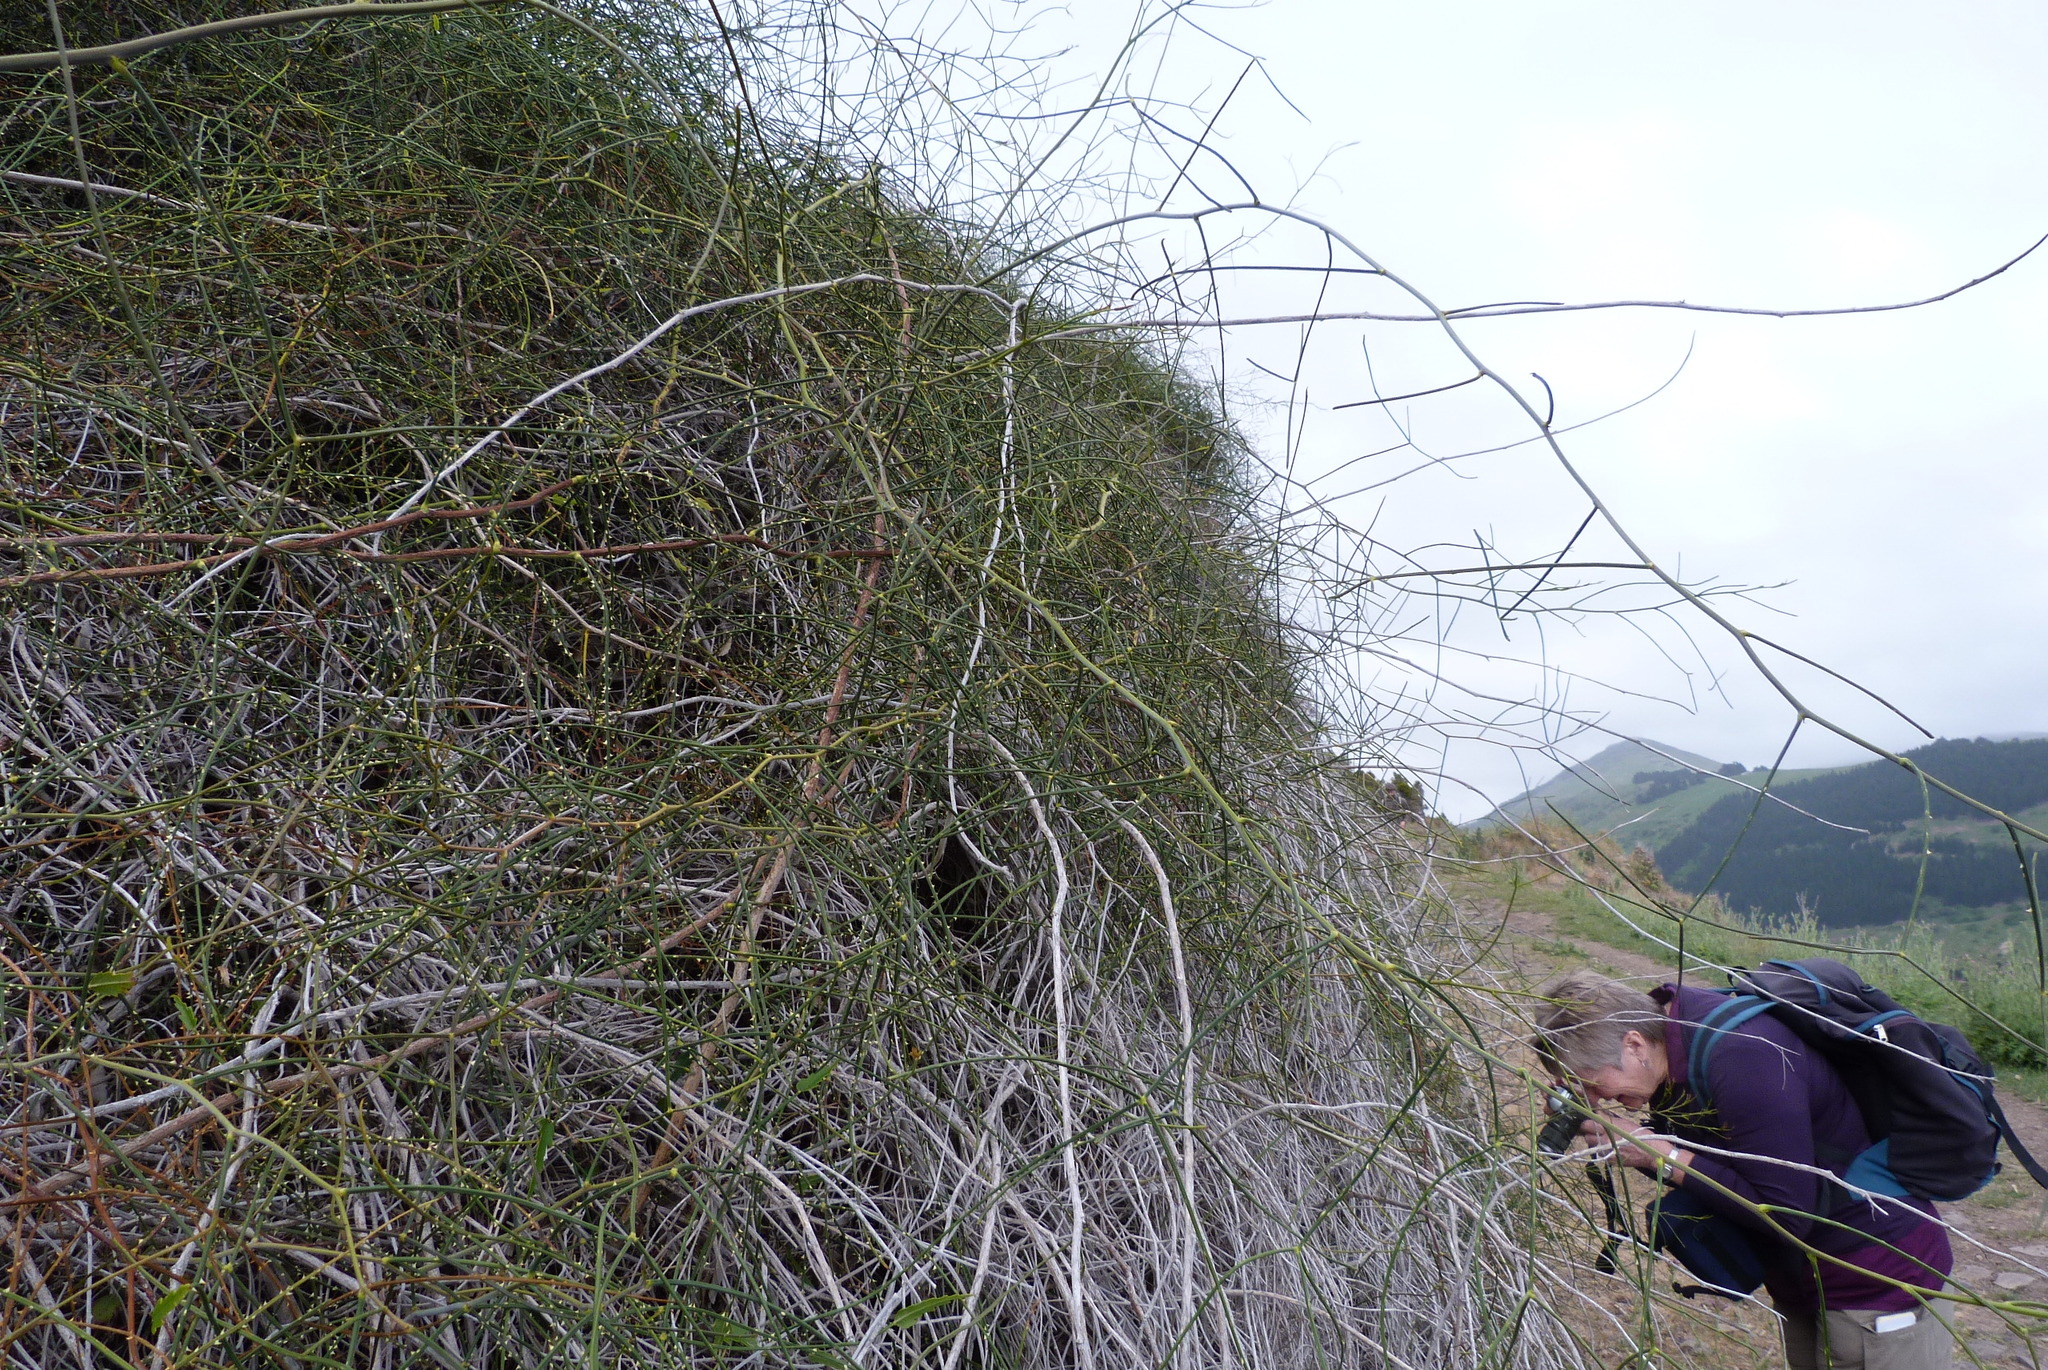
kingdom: Plantae
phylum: Tracheophyta
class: Magnoliopsida
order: Rosales
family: Rosaceae
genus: Rubus
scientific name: Rubus squarrosus
